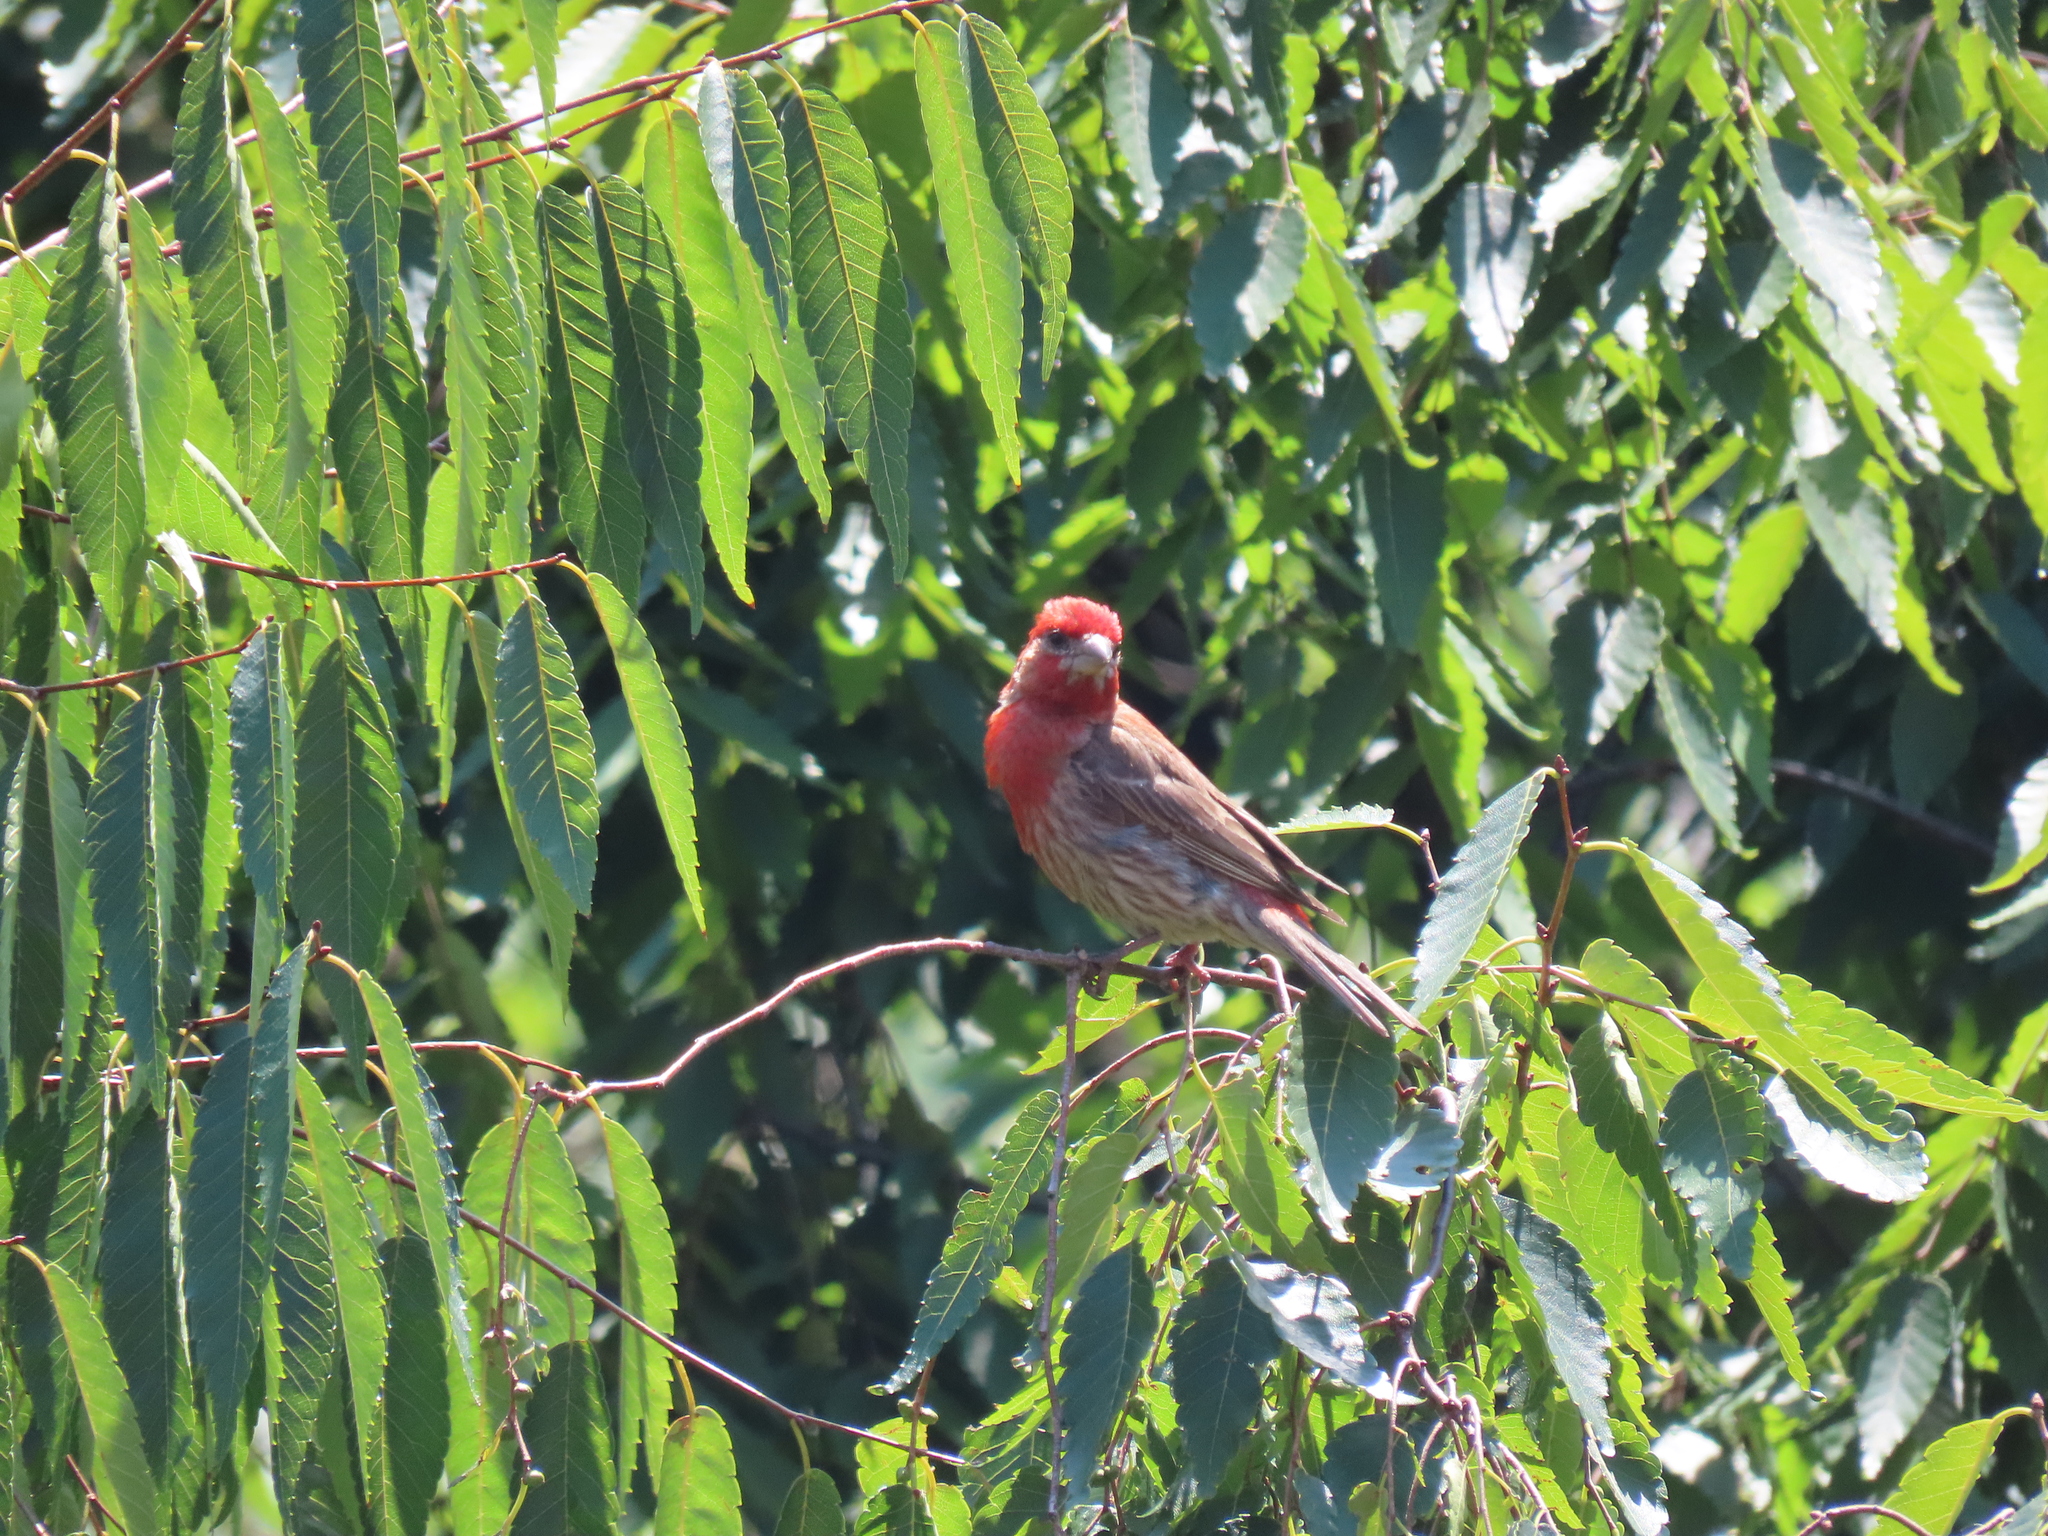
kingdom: Animalia
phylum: Chordata
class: Aves
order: Passeriformes
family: Fringillidae
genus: Haemorhous
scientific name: Haemorhous mexicanus
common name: House finch
